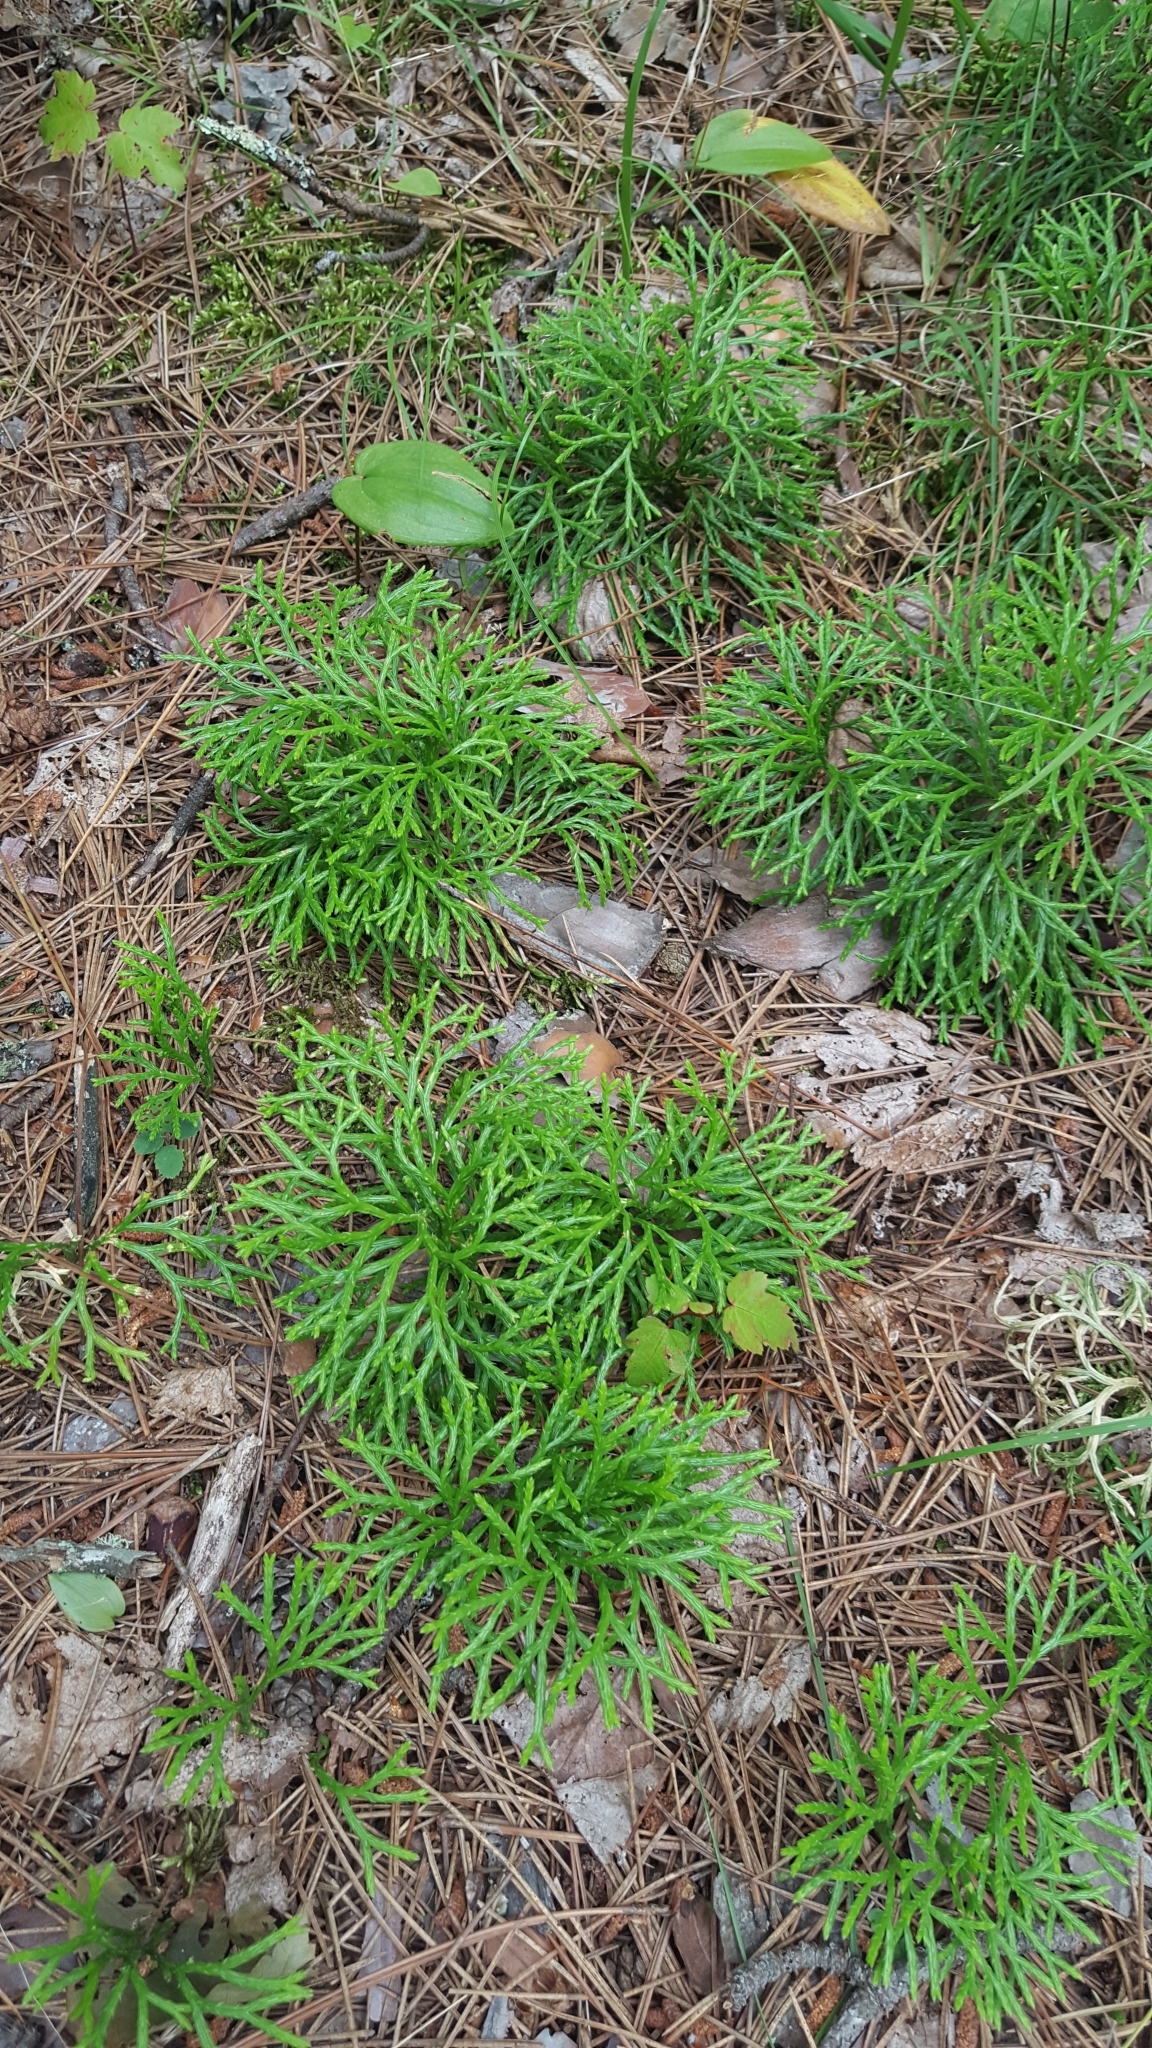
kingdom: Plantae
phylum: Tracheophyta
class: Lycopodiopsida
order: Lycopodiales
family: Lycopodiaceae
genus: Diphasiastrum
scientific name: Diphasiastrum complanatum
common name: Northern running-pine
